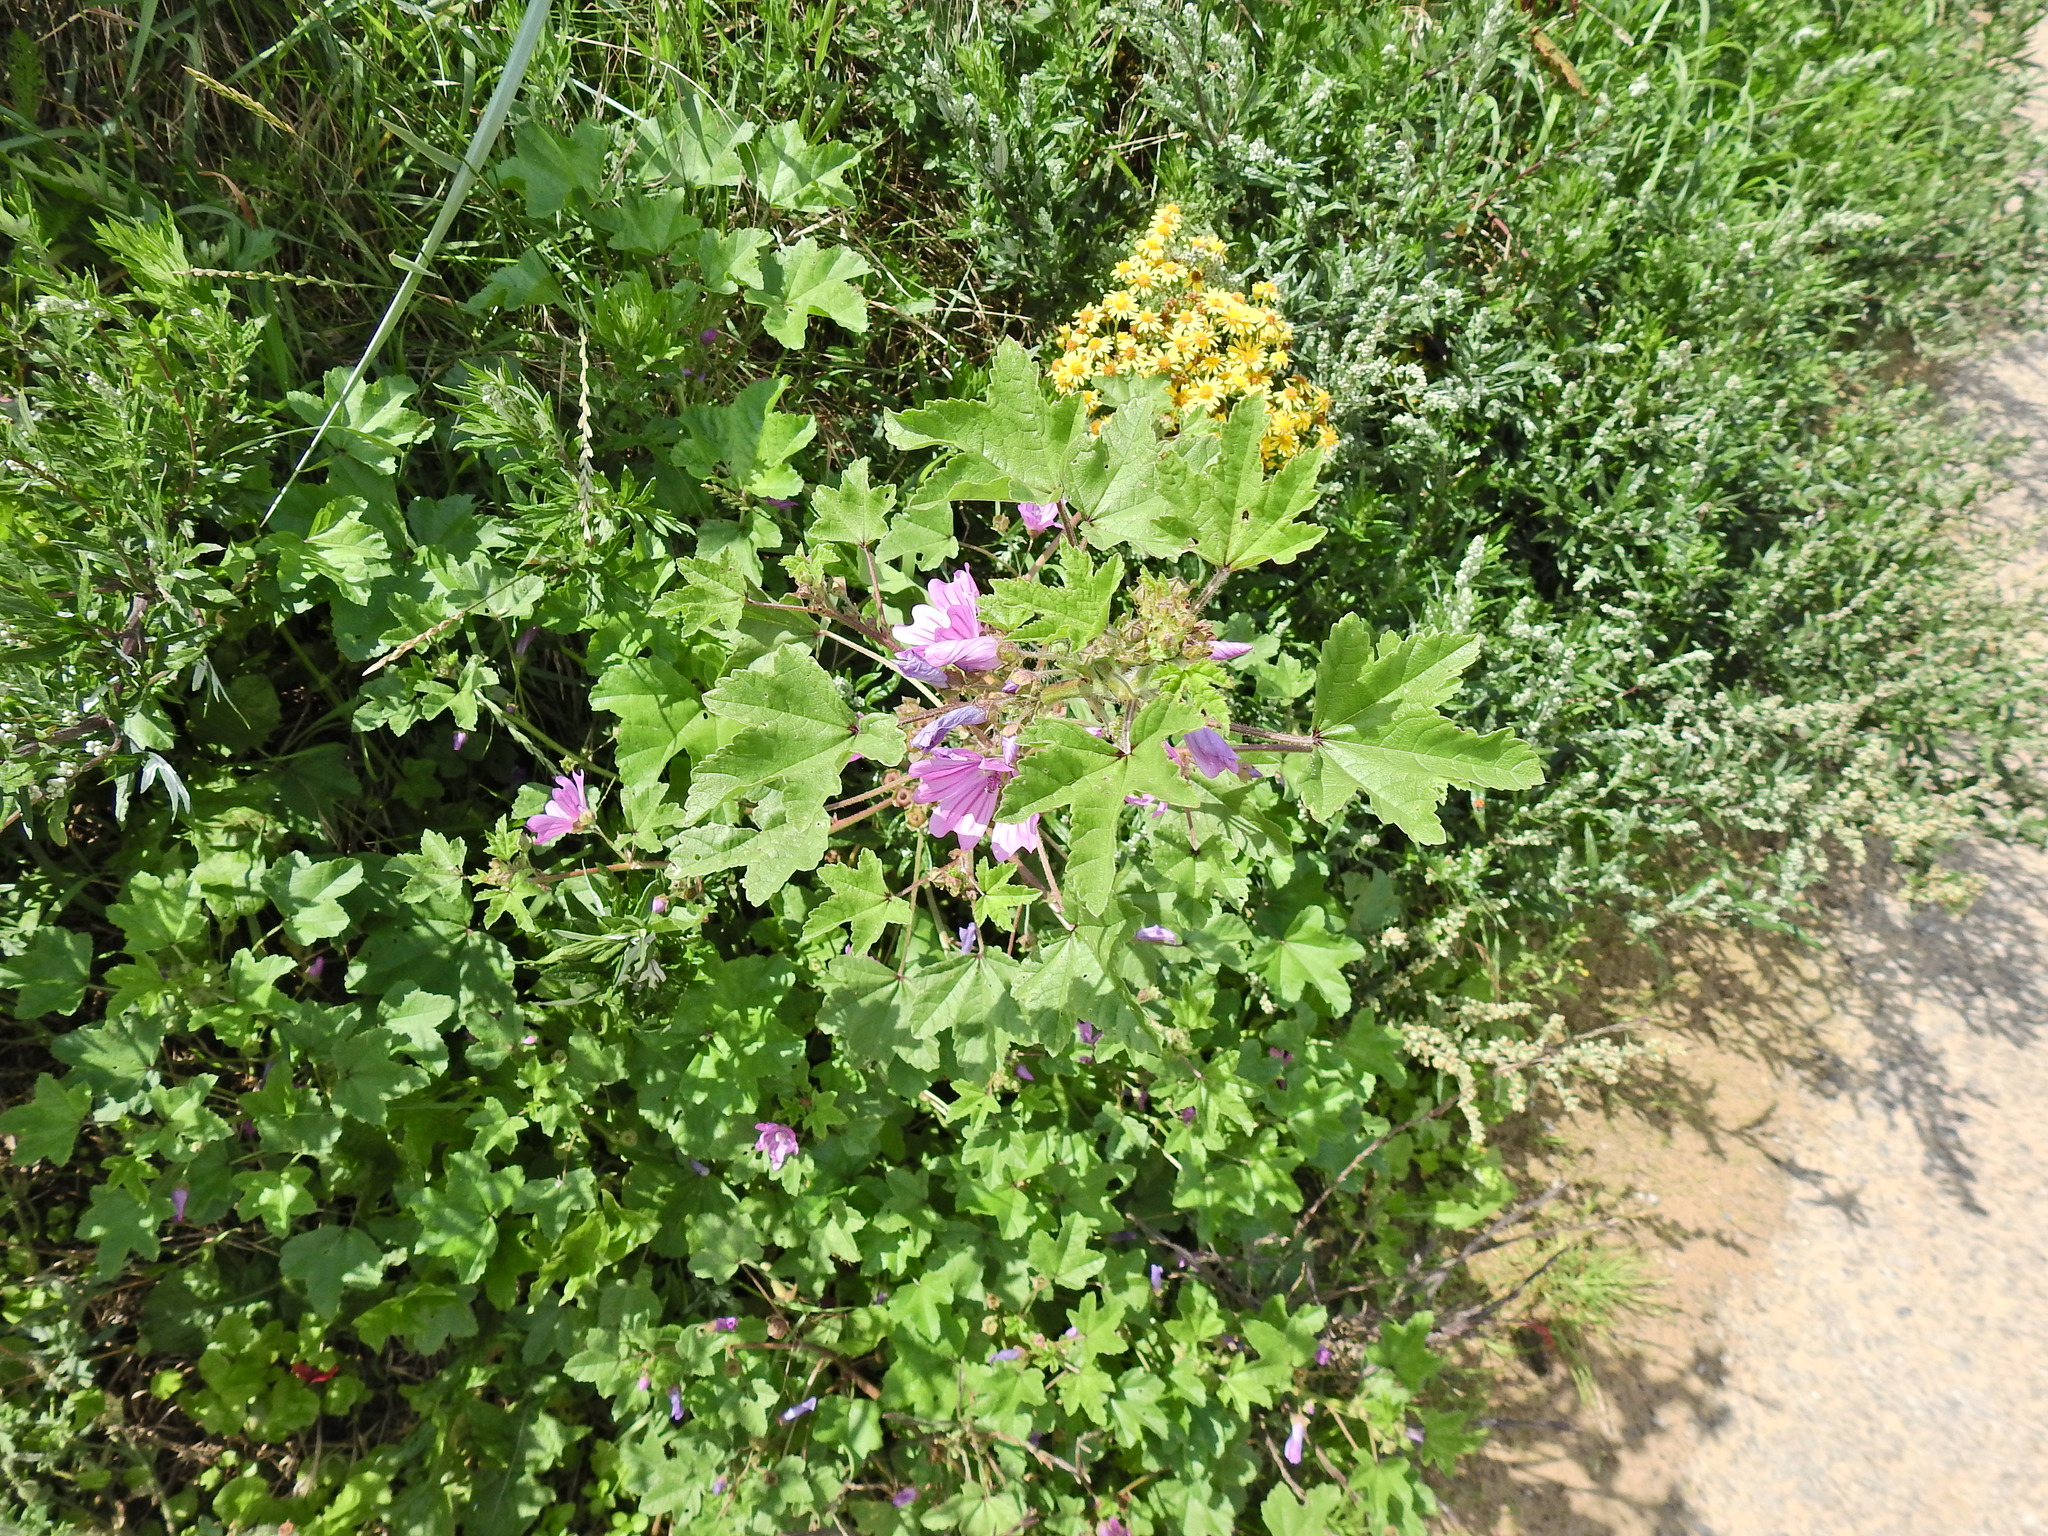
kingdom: Plantae
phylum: Tracheophyta
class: Magnoliopsida
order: Malvales
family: Malvaceae
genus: Malva
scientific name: Malva sylvestris
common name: Common mallow
